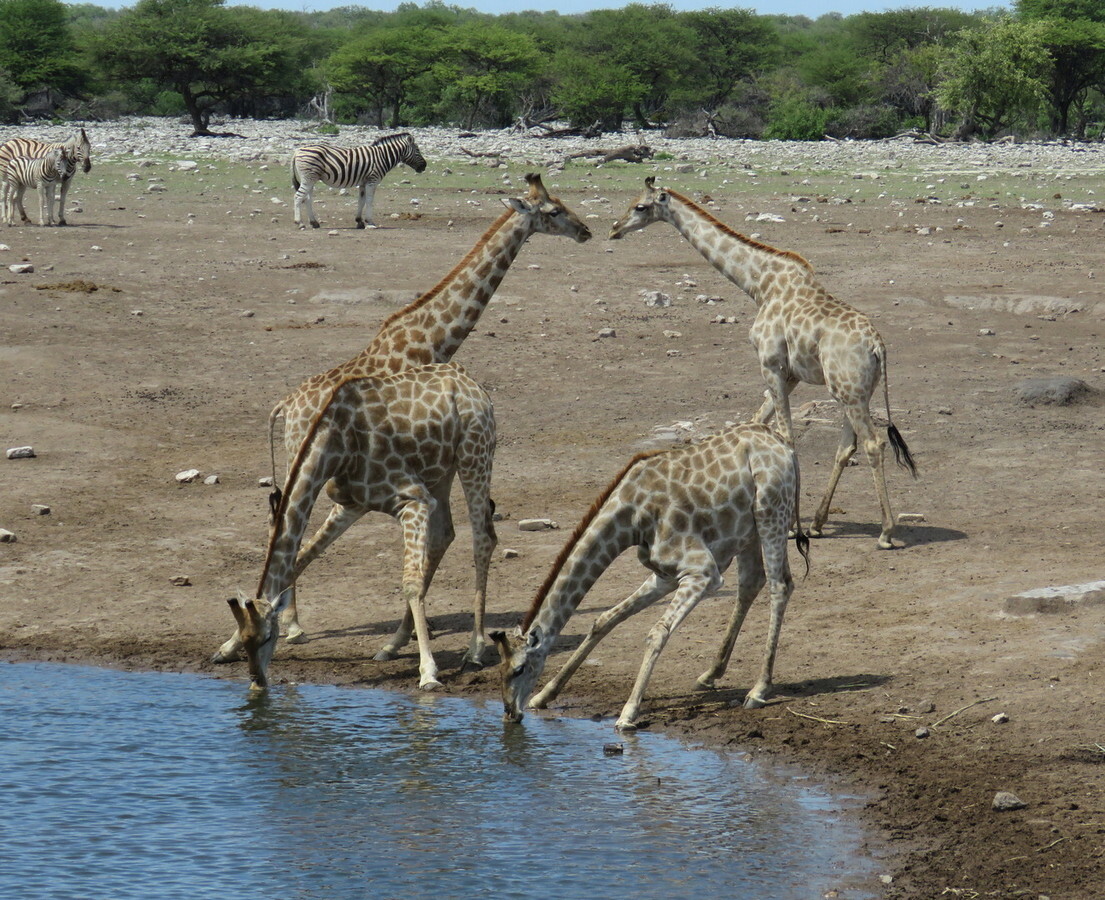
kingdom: Animalia
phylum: Chordata
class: Mammalia
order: Artiodactyla
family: Giraffidae
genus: Giraffa
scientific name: Giraffa giraffa
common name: Southern giraffe
